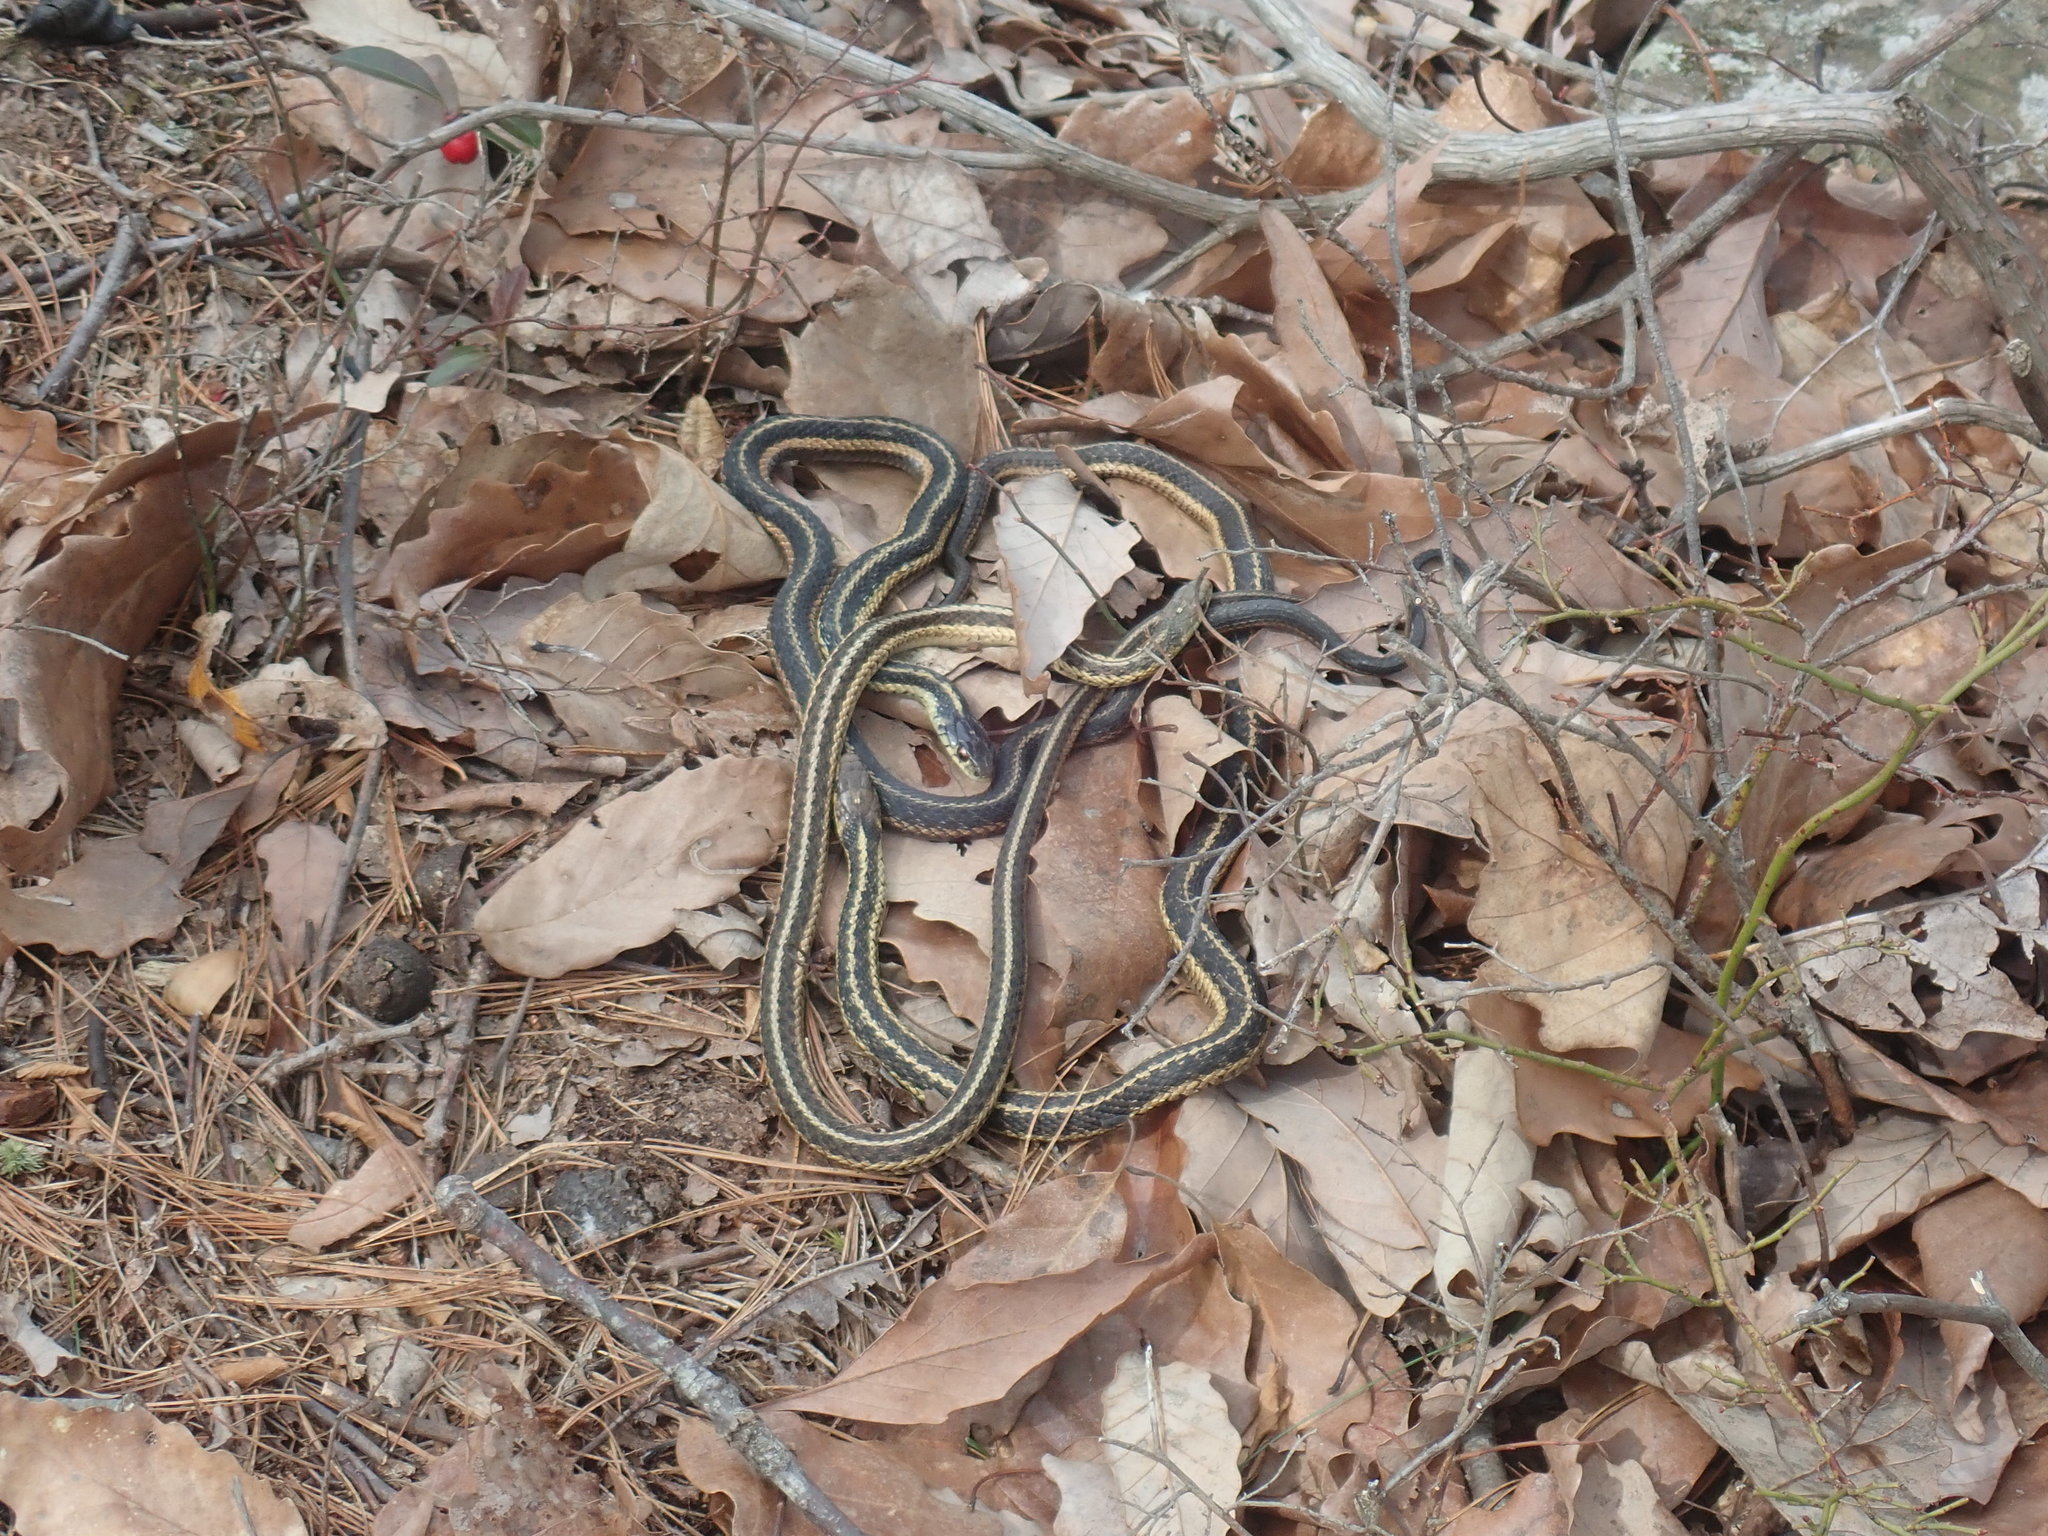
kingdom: Animalia
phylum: Chordata
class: Squamata
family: Colubridae
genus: Thamnophis
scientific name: Thamnophis sirtalis
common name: Common garter snake
